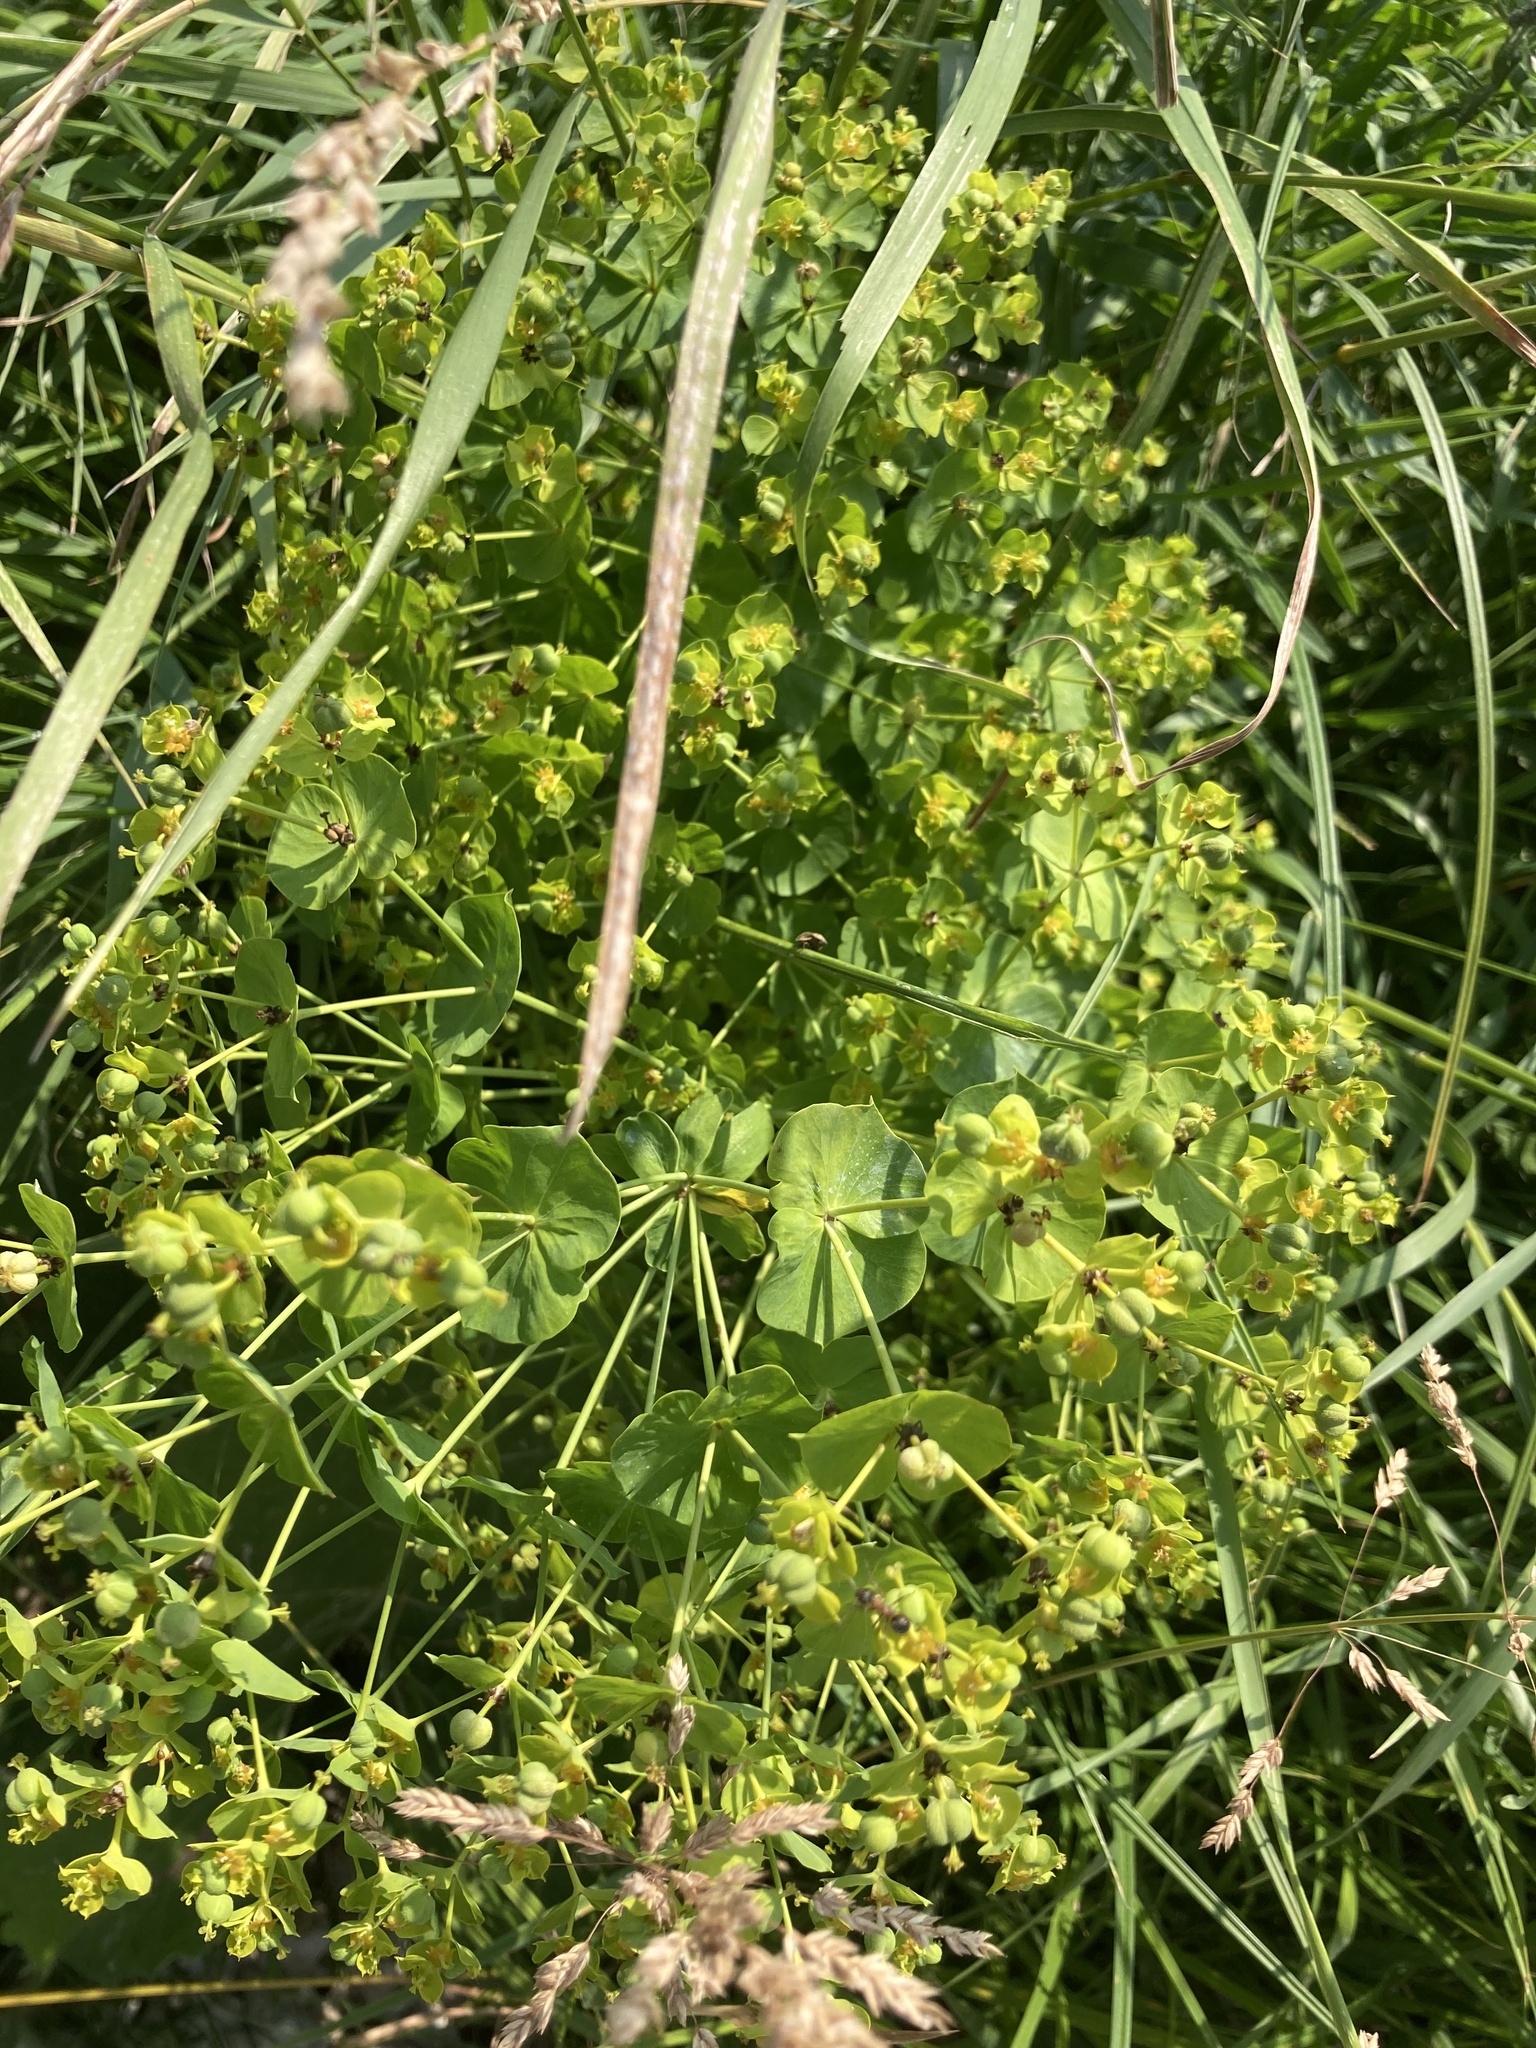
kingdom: Plantae
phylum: Tracheophyta
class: Magnoliopsida
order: Malpighiales
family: Euphorbiaceae
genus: Euphorbia
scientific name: Euphorbia virgata
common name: Leafy spurge
